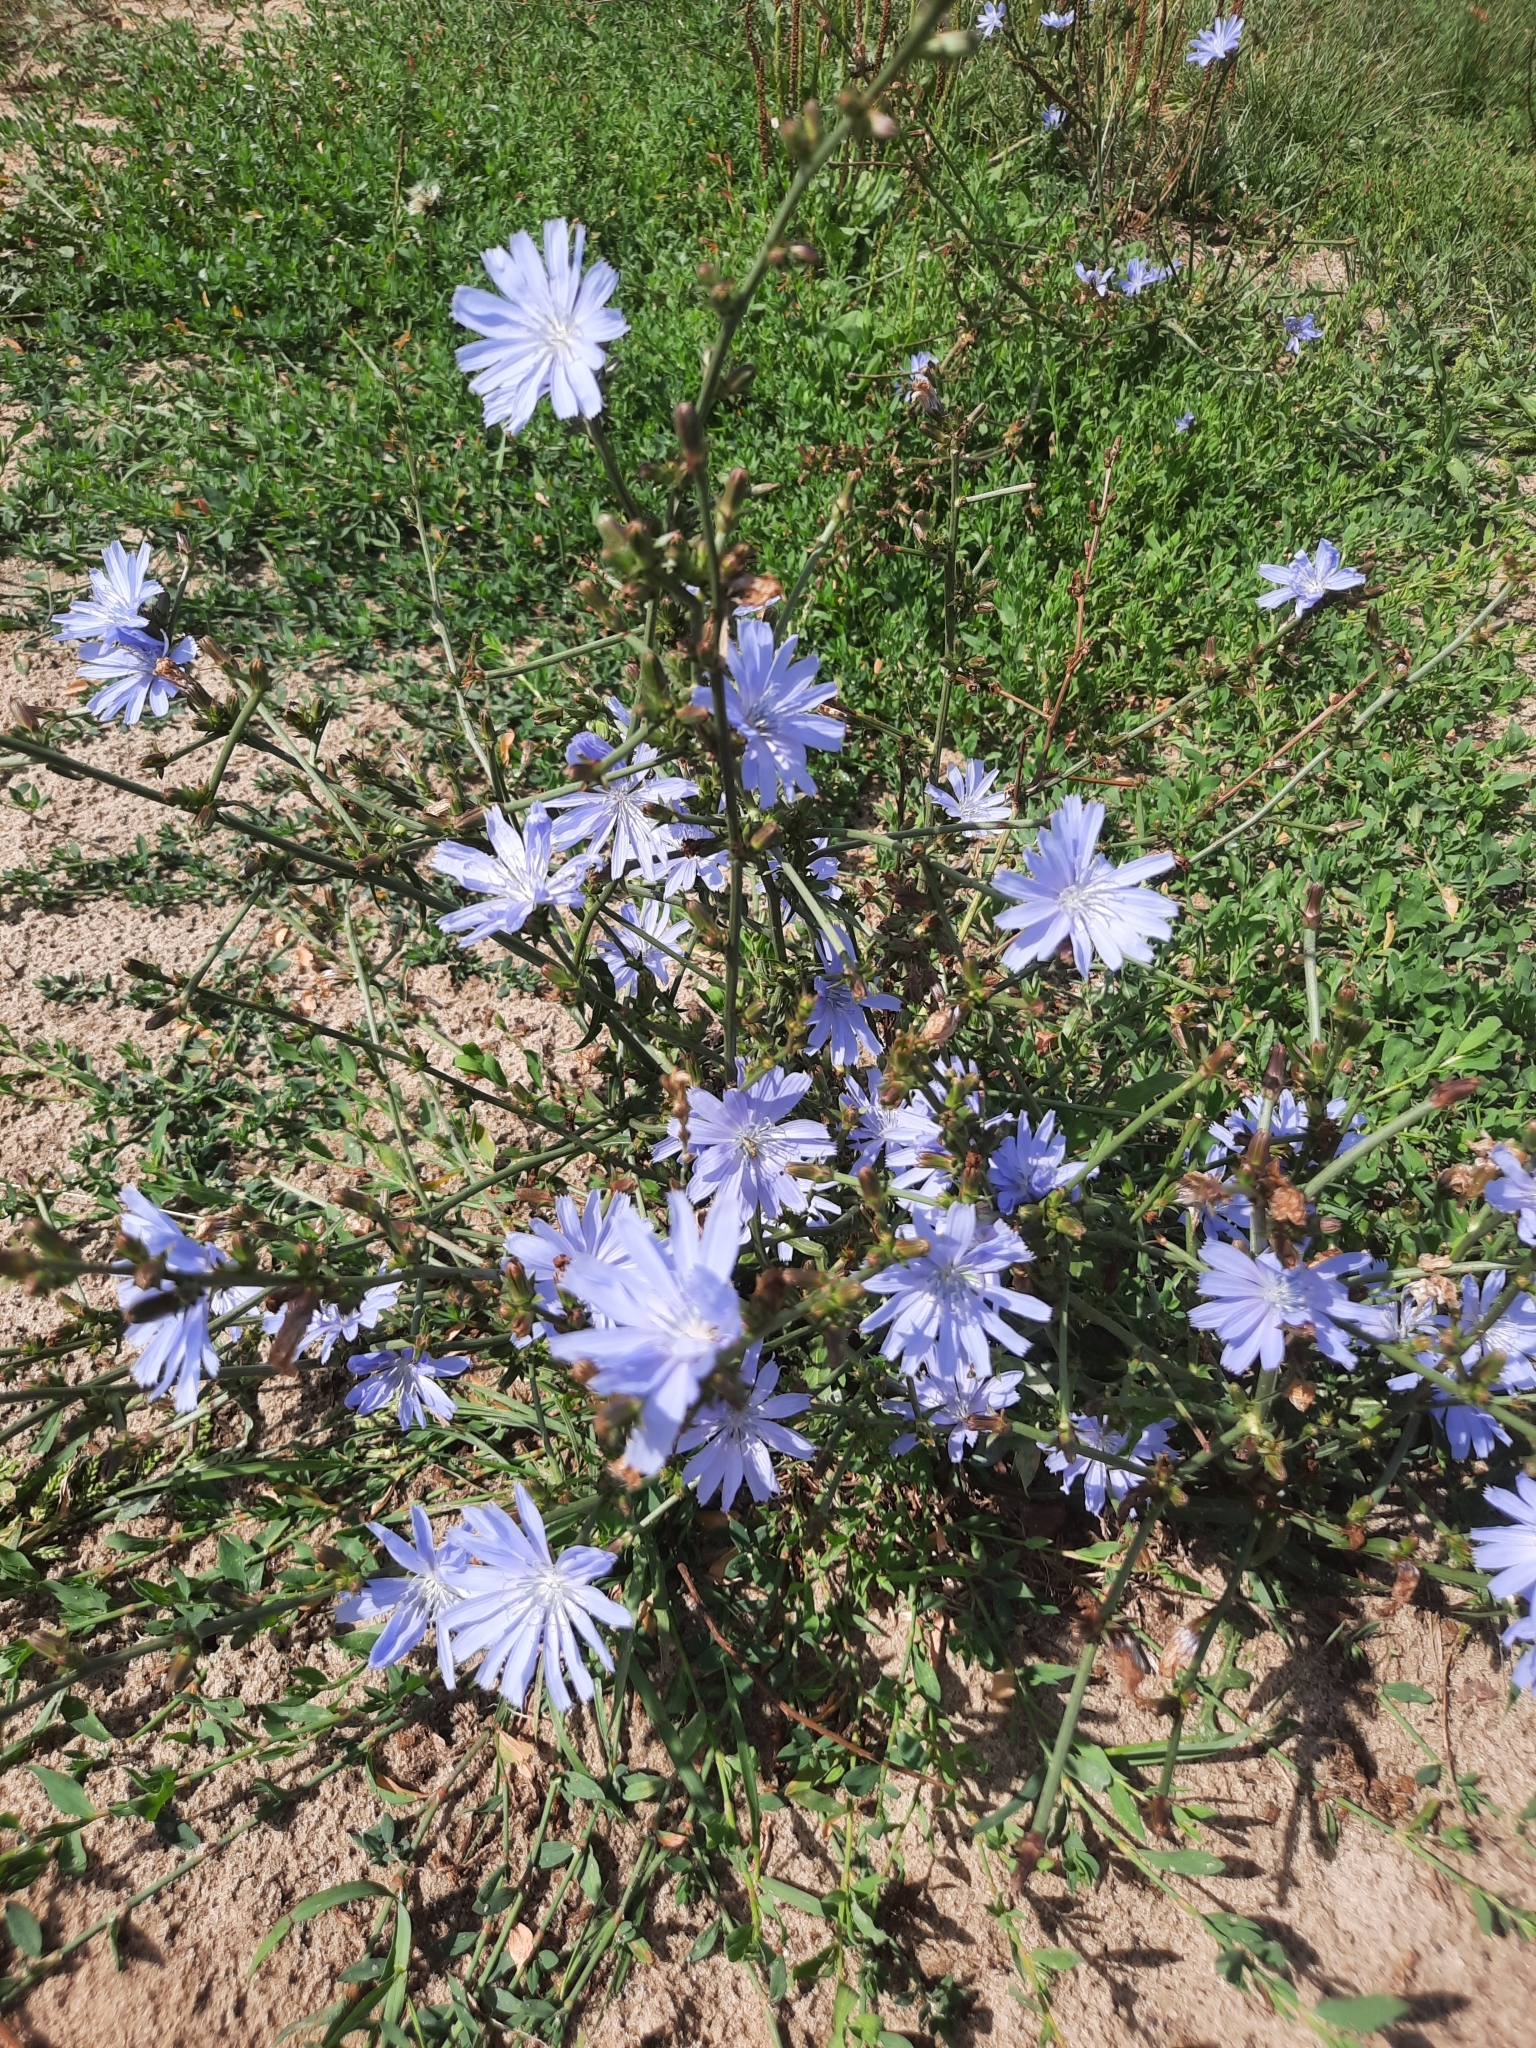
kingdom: Plantae
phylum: Tracheophyta
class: Magnoliopsida
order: Asterales
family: Asteraceae
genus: Cichorium
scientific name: Cichorium intybus
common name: Chicory
